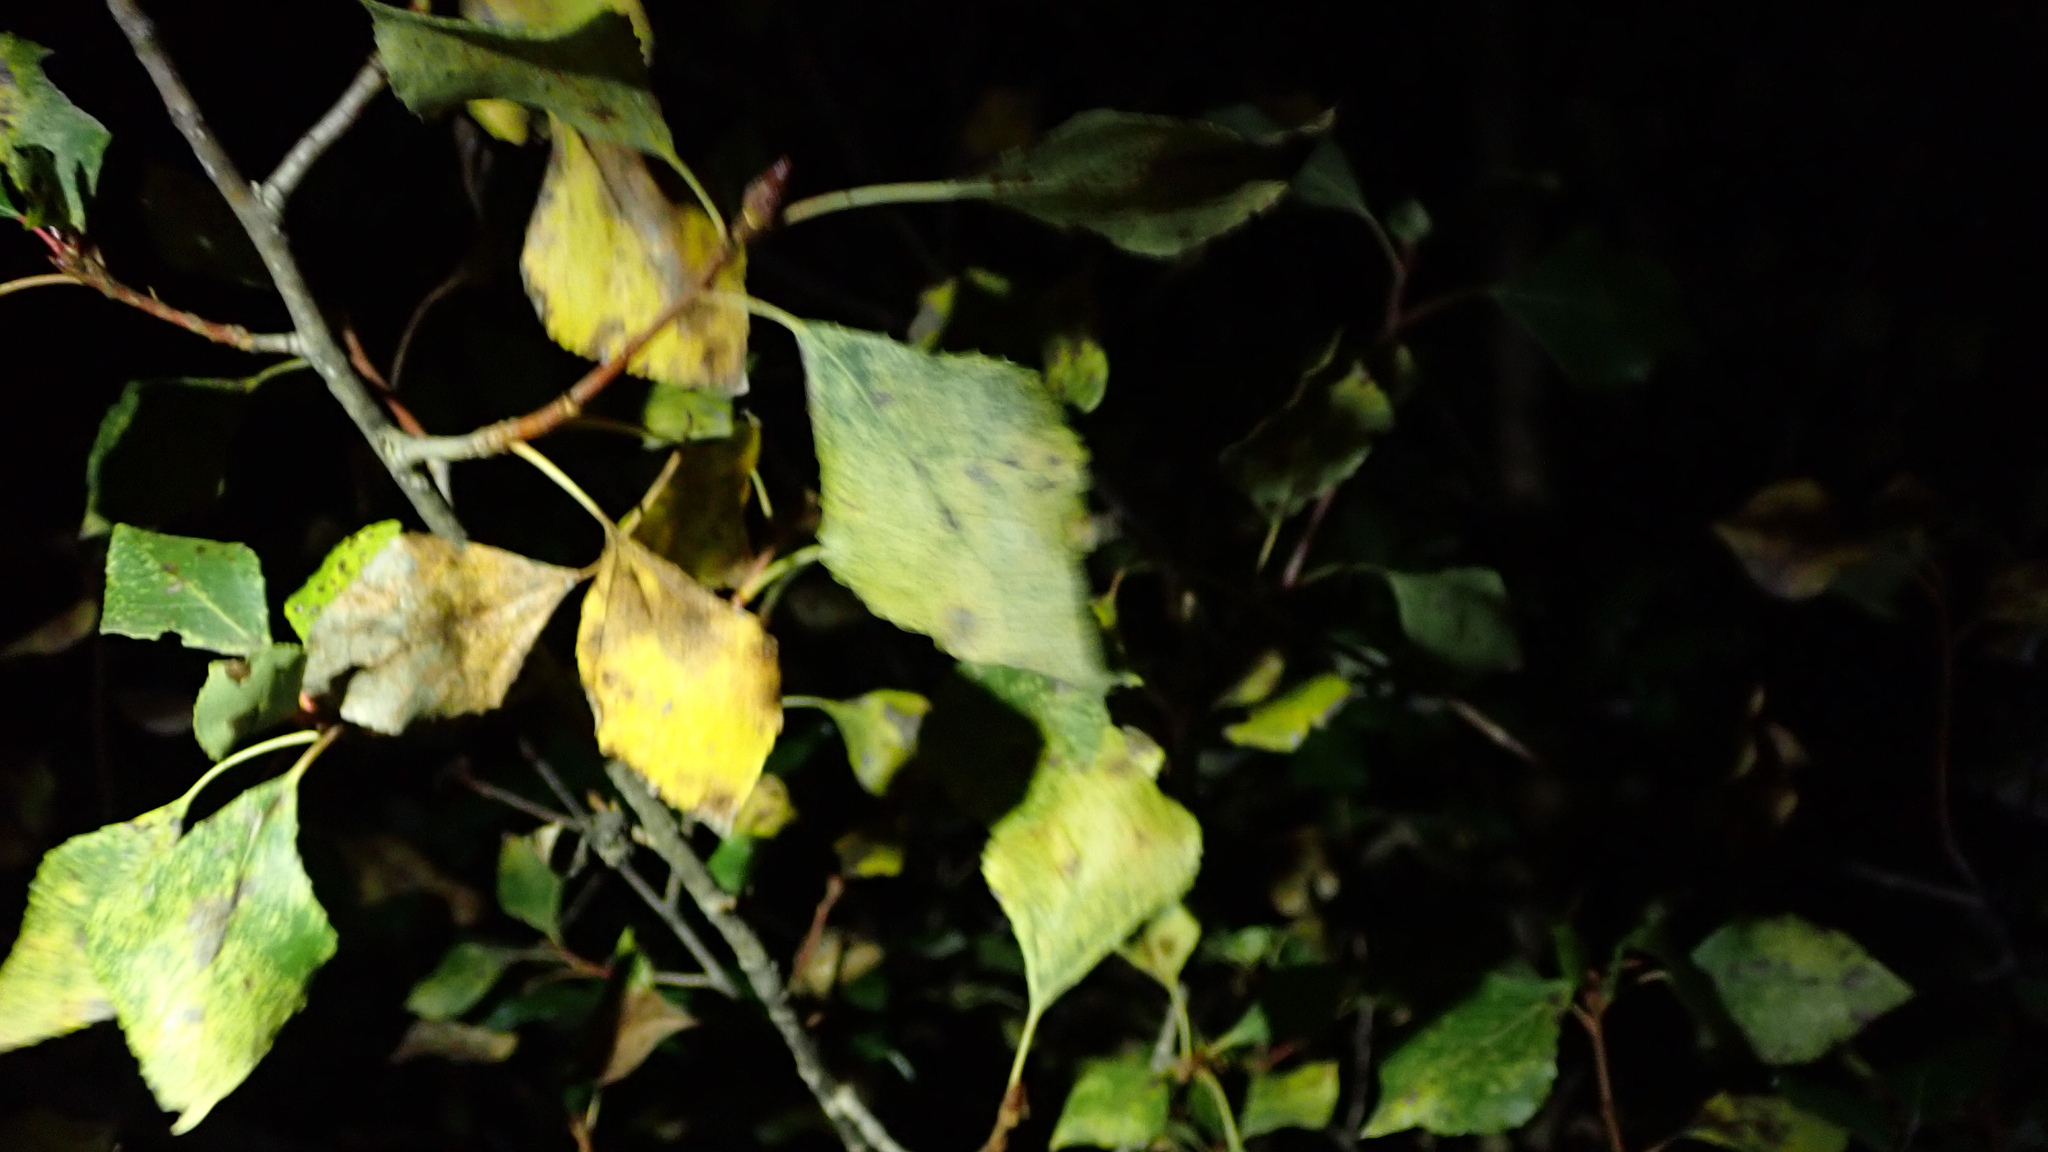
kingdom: Plantae
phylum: Tracheophyta
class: Magnoliopsida
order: Malpighiales
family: Salicaceae
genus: Populus
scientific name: Populus nigra
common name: Black poplar
